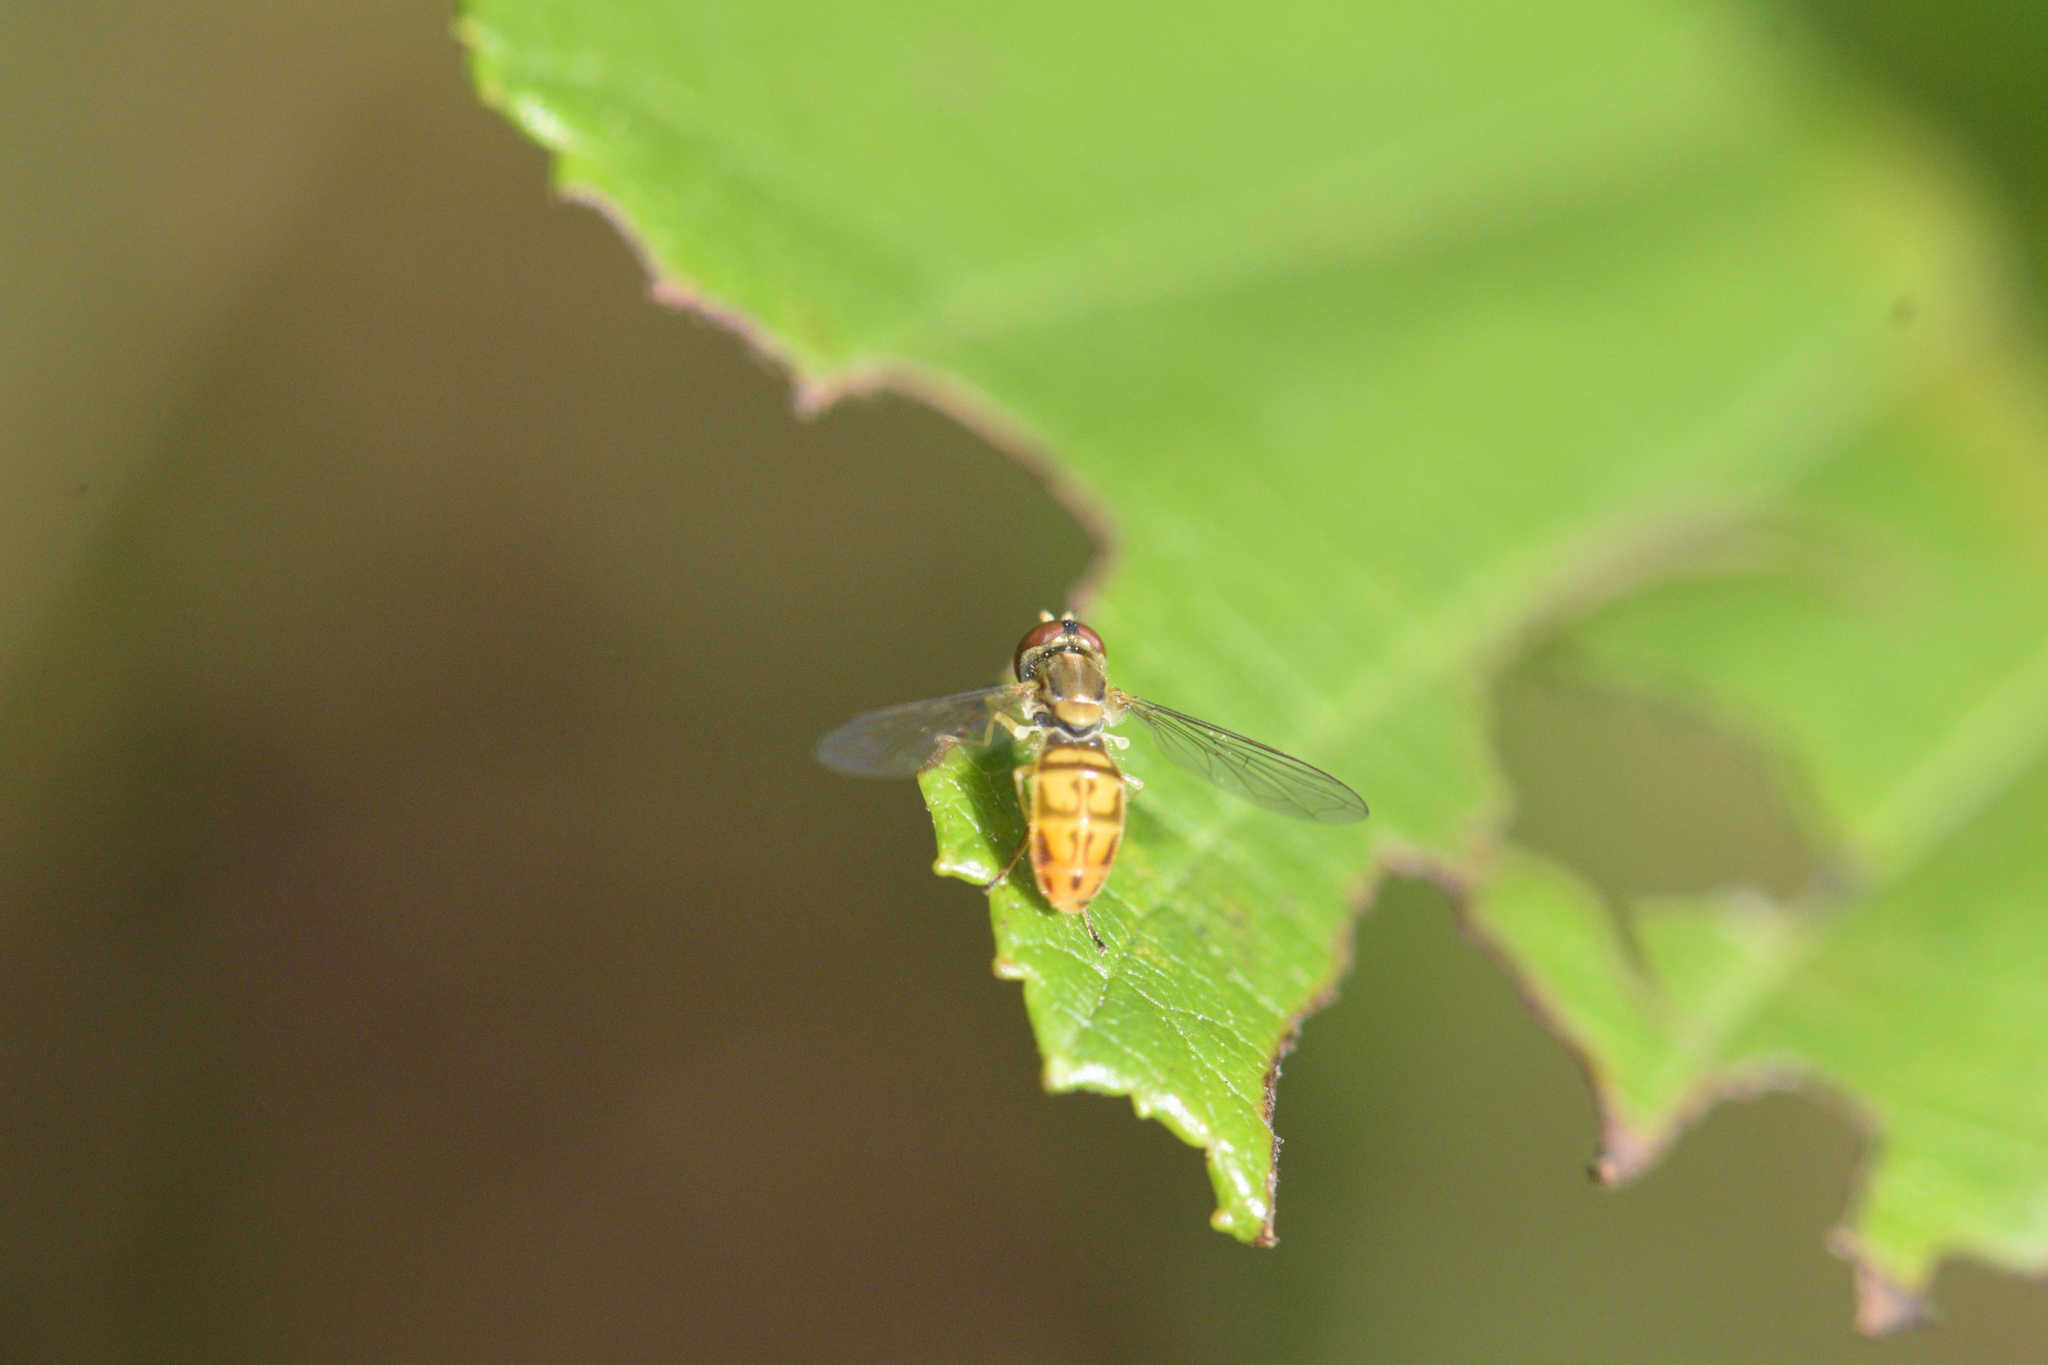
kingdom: Animalia
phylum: Arthropoda
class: Insecta
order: Diptera
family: Syrphidae
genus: Toxomerus
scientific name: Toxomerus marginatus
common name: Syrphid fly
